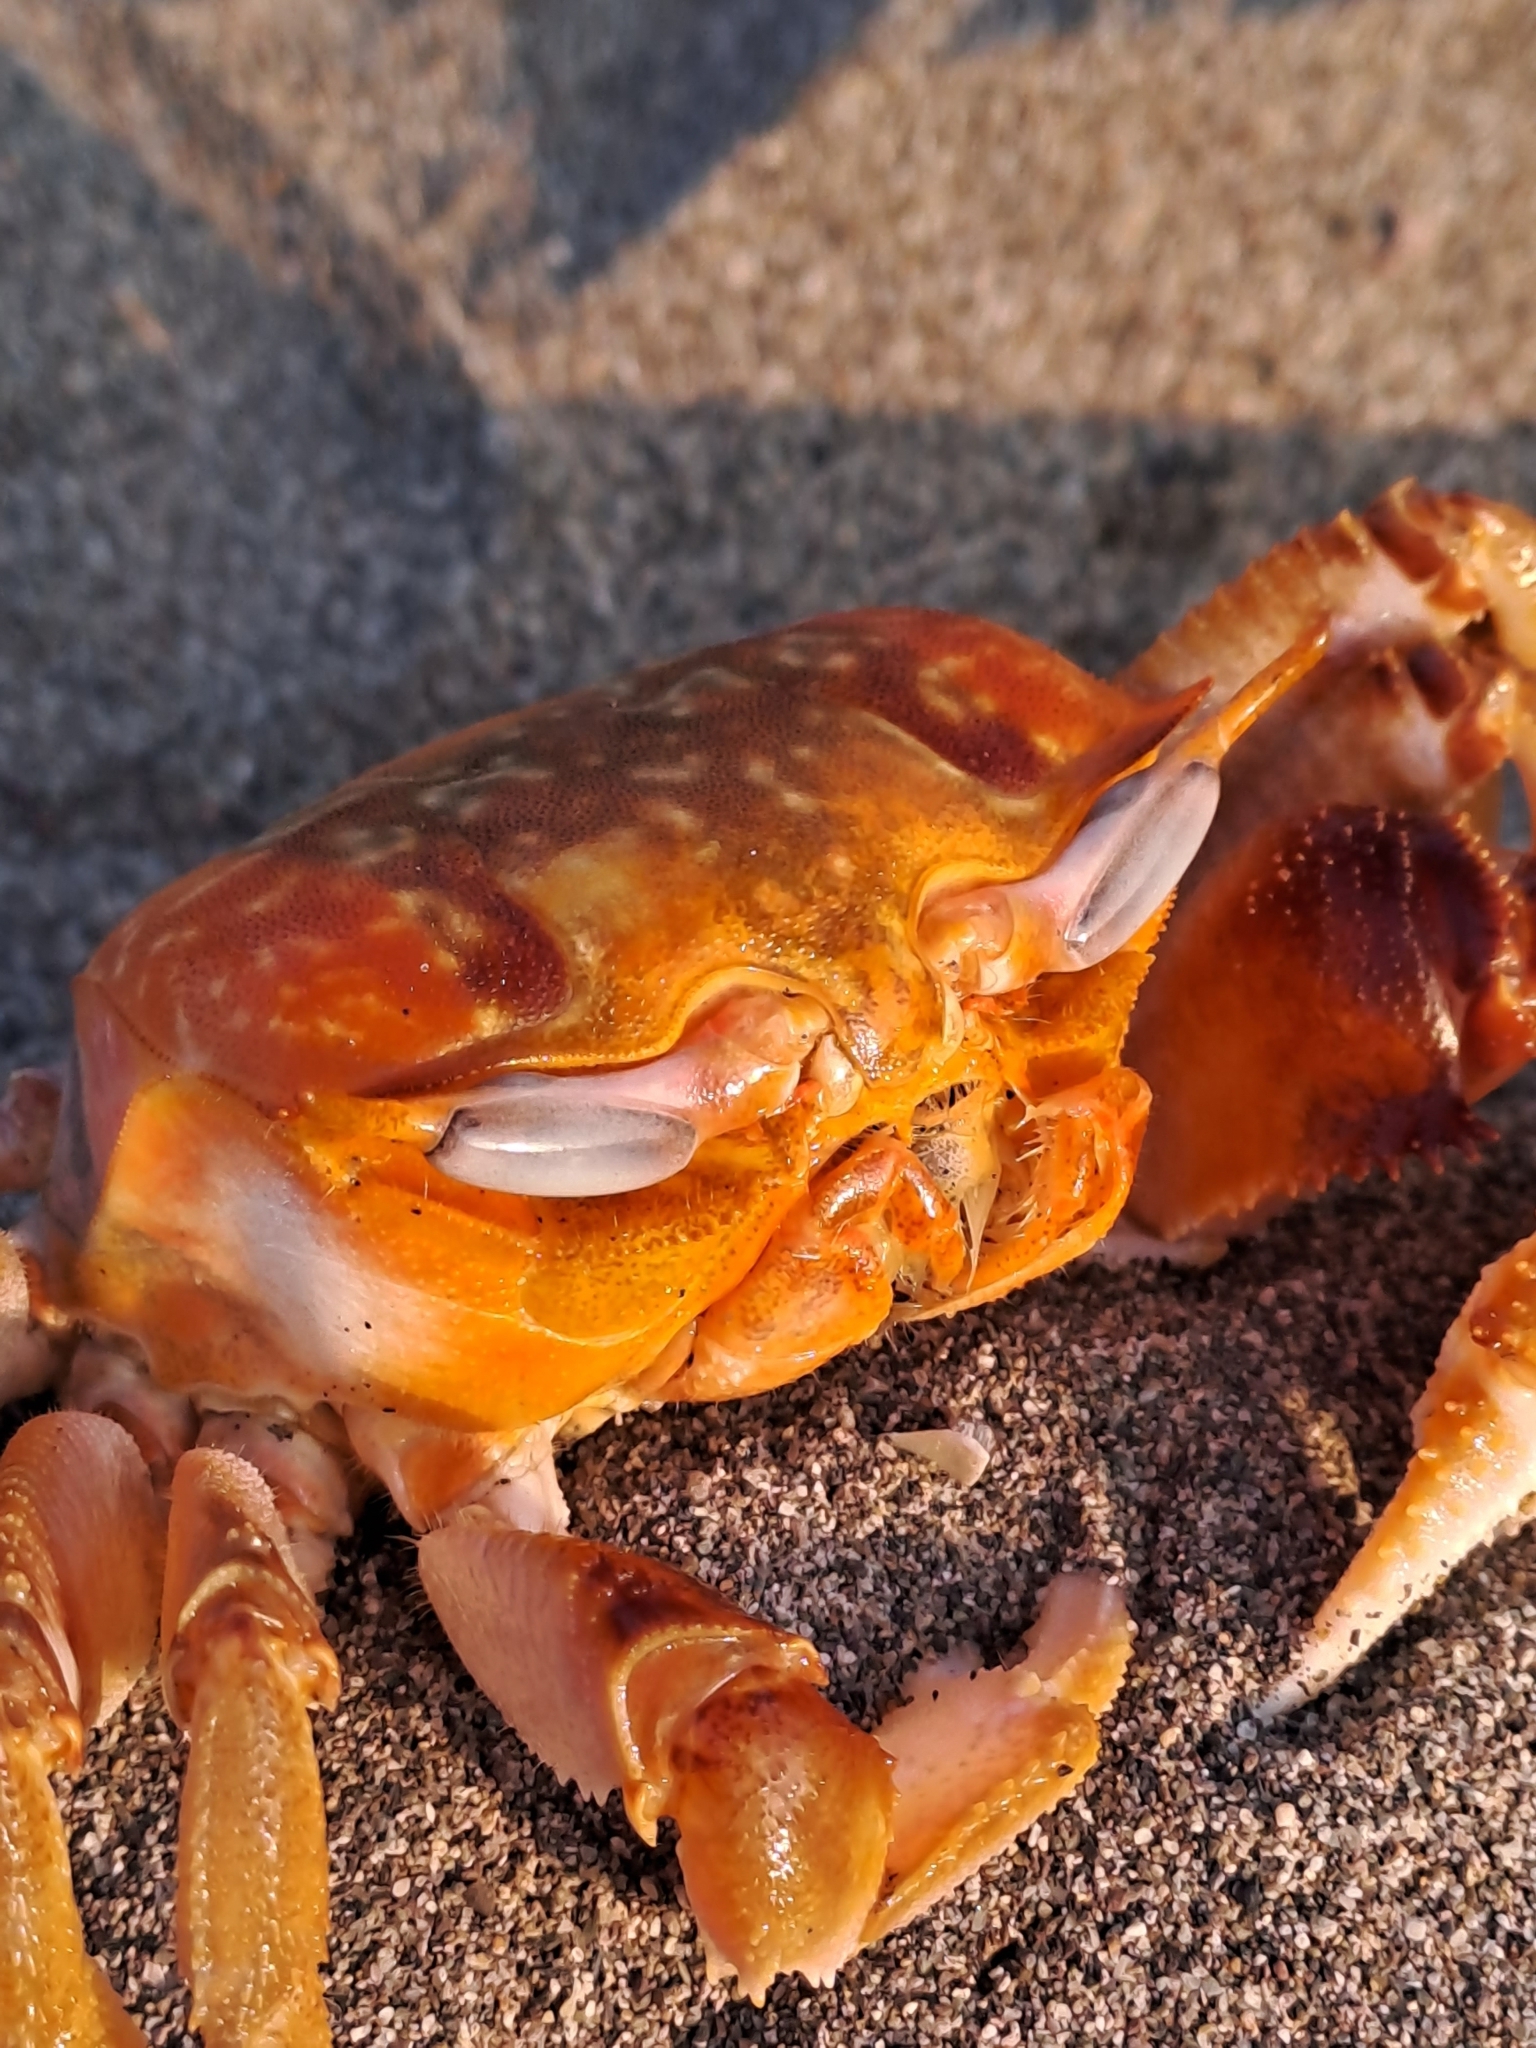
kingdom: Animalia
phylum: Arthropoda
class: Malacostraca
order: Decapoda
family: Ocypodidae
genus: Ocypode
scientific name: Ocypode gaudichaudii
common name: Pacific ghost crab
